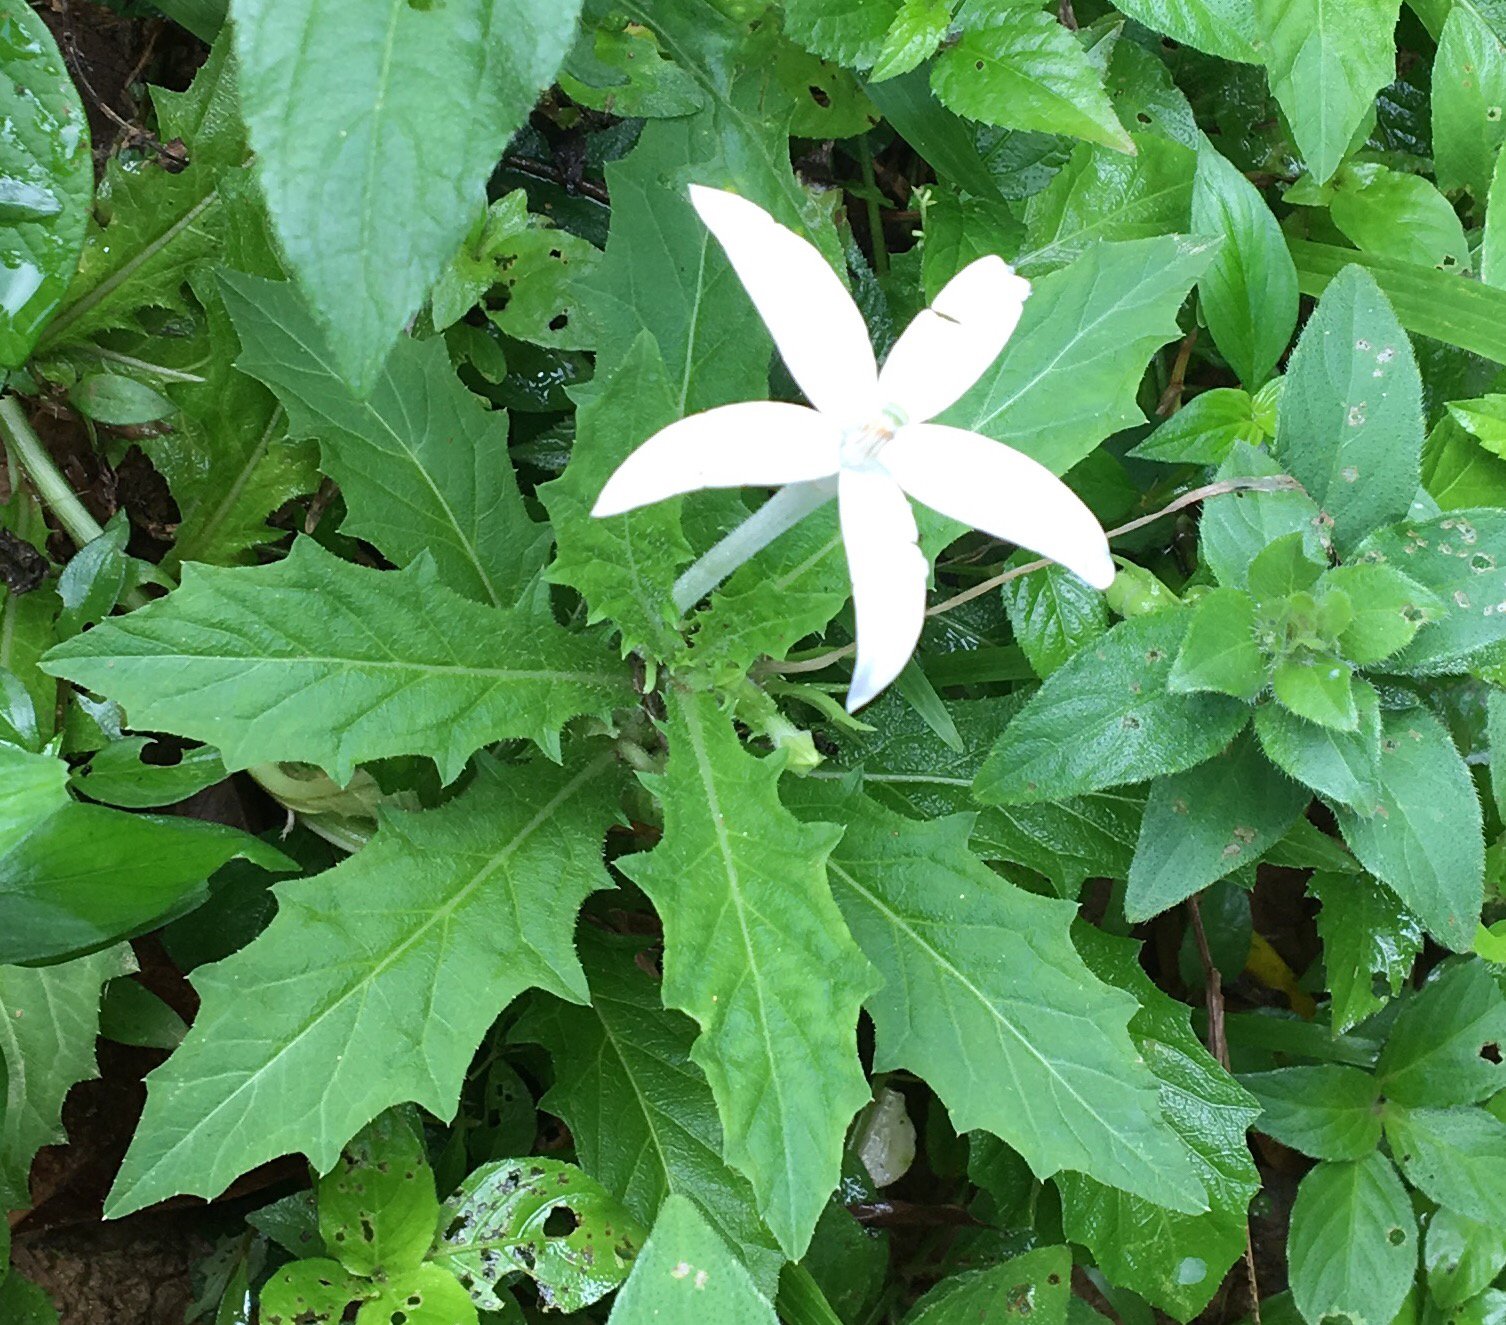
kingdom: Plantae
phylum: Tracheophyta
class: Magnoliopsida
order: Asterales
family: Campanulaceae
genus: Hippobroma
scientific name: Hippobroma longiflora
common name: Madamfate
